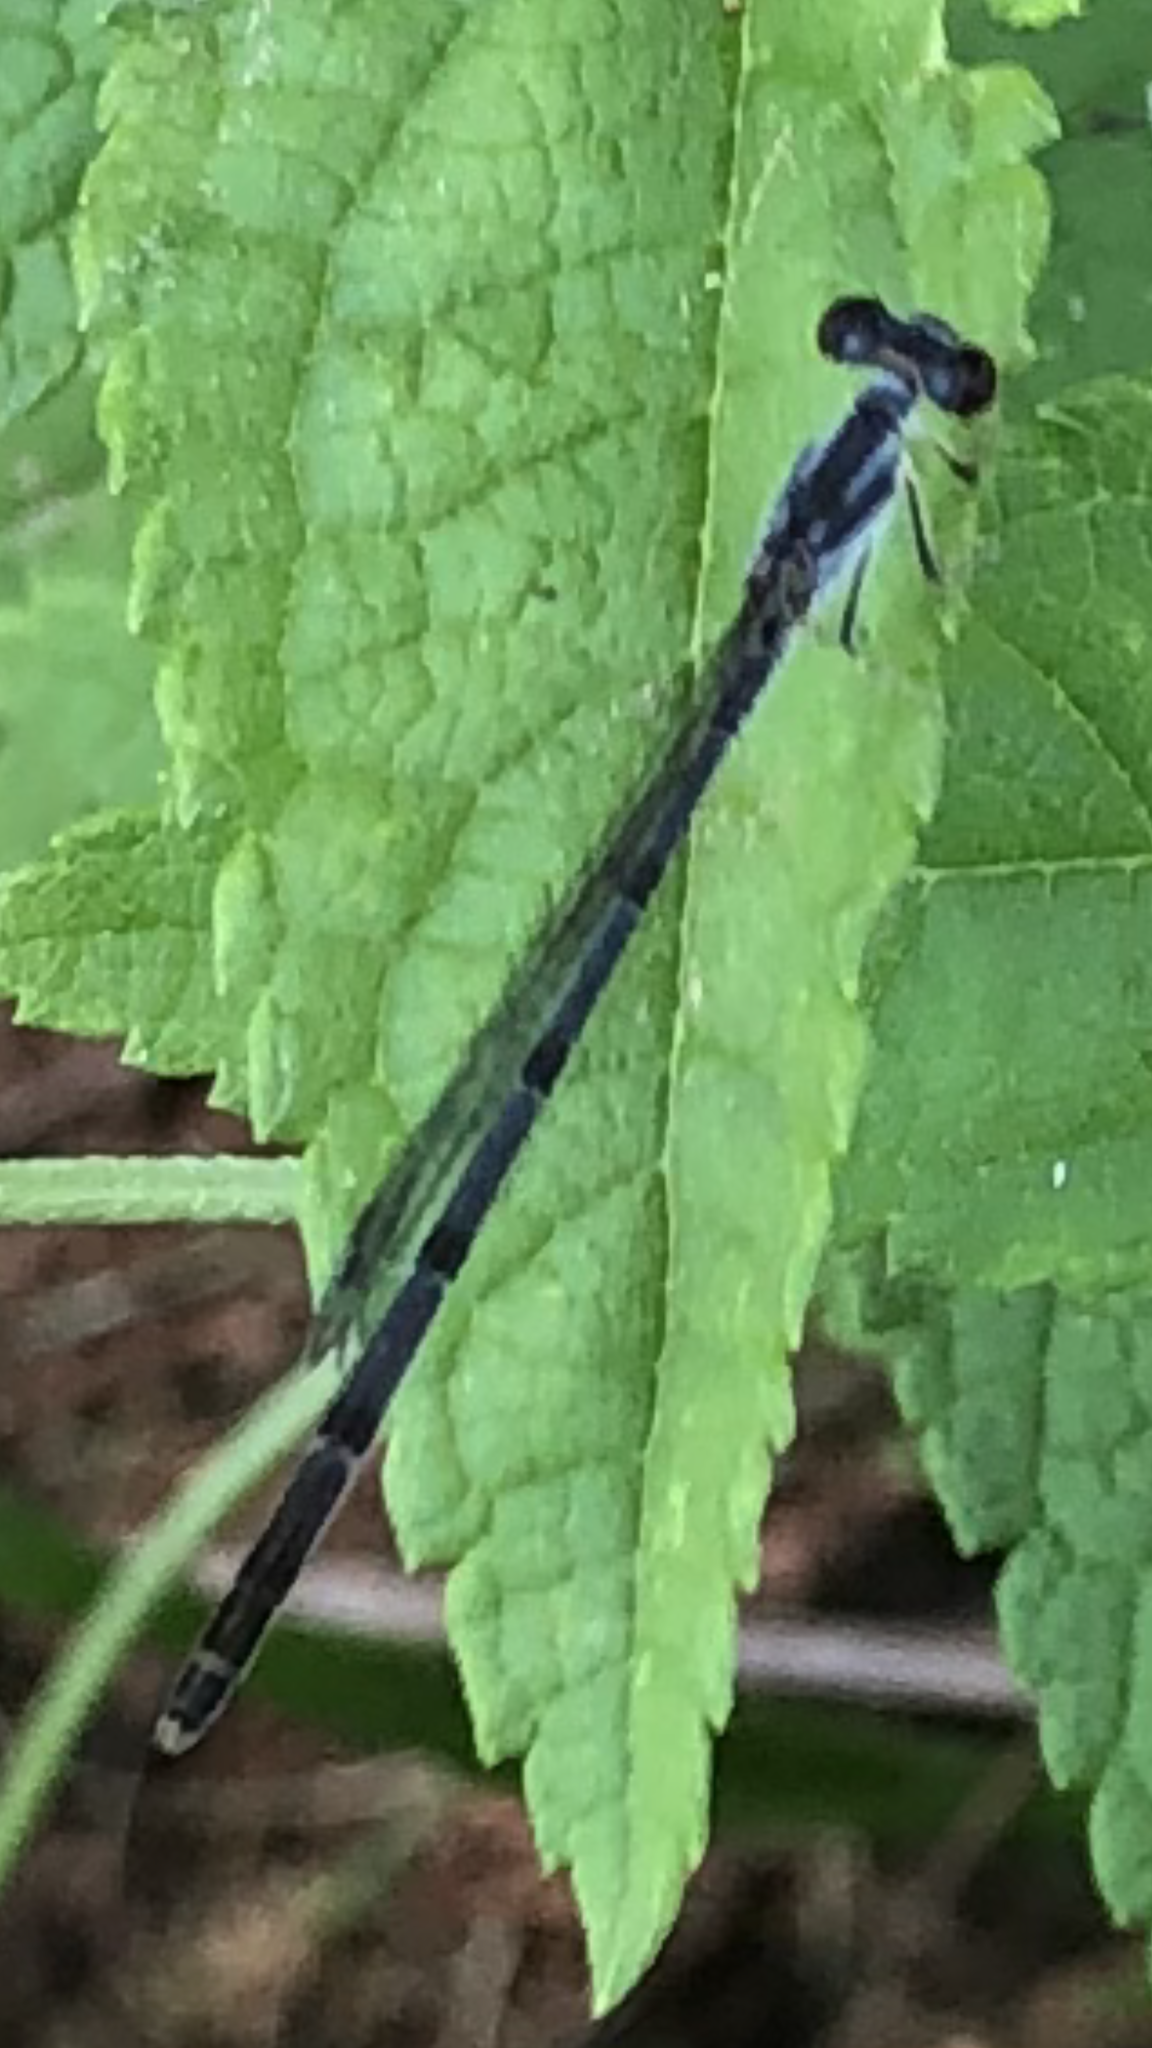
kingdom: Animalia
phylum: Arthropoda
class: Insecta
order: Odonata
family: Coenagrionidae
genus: Ischnura
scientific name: Ischnura posita
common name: Fragile forktail
